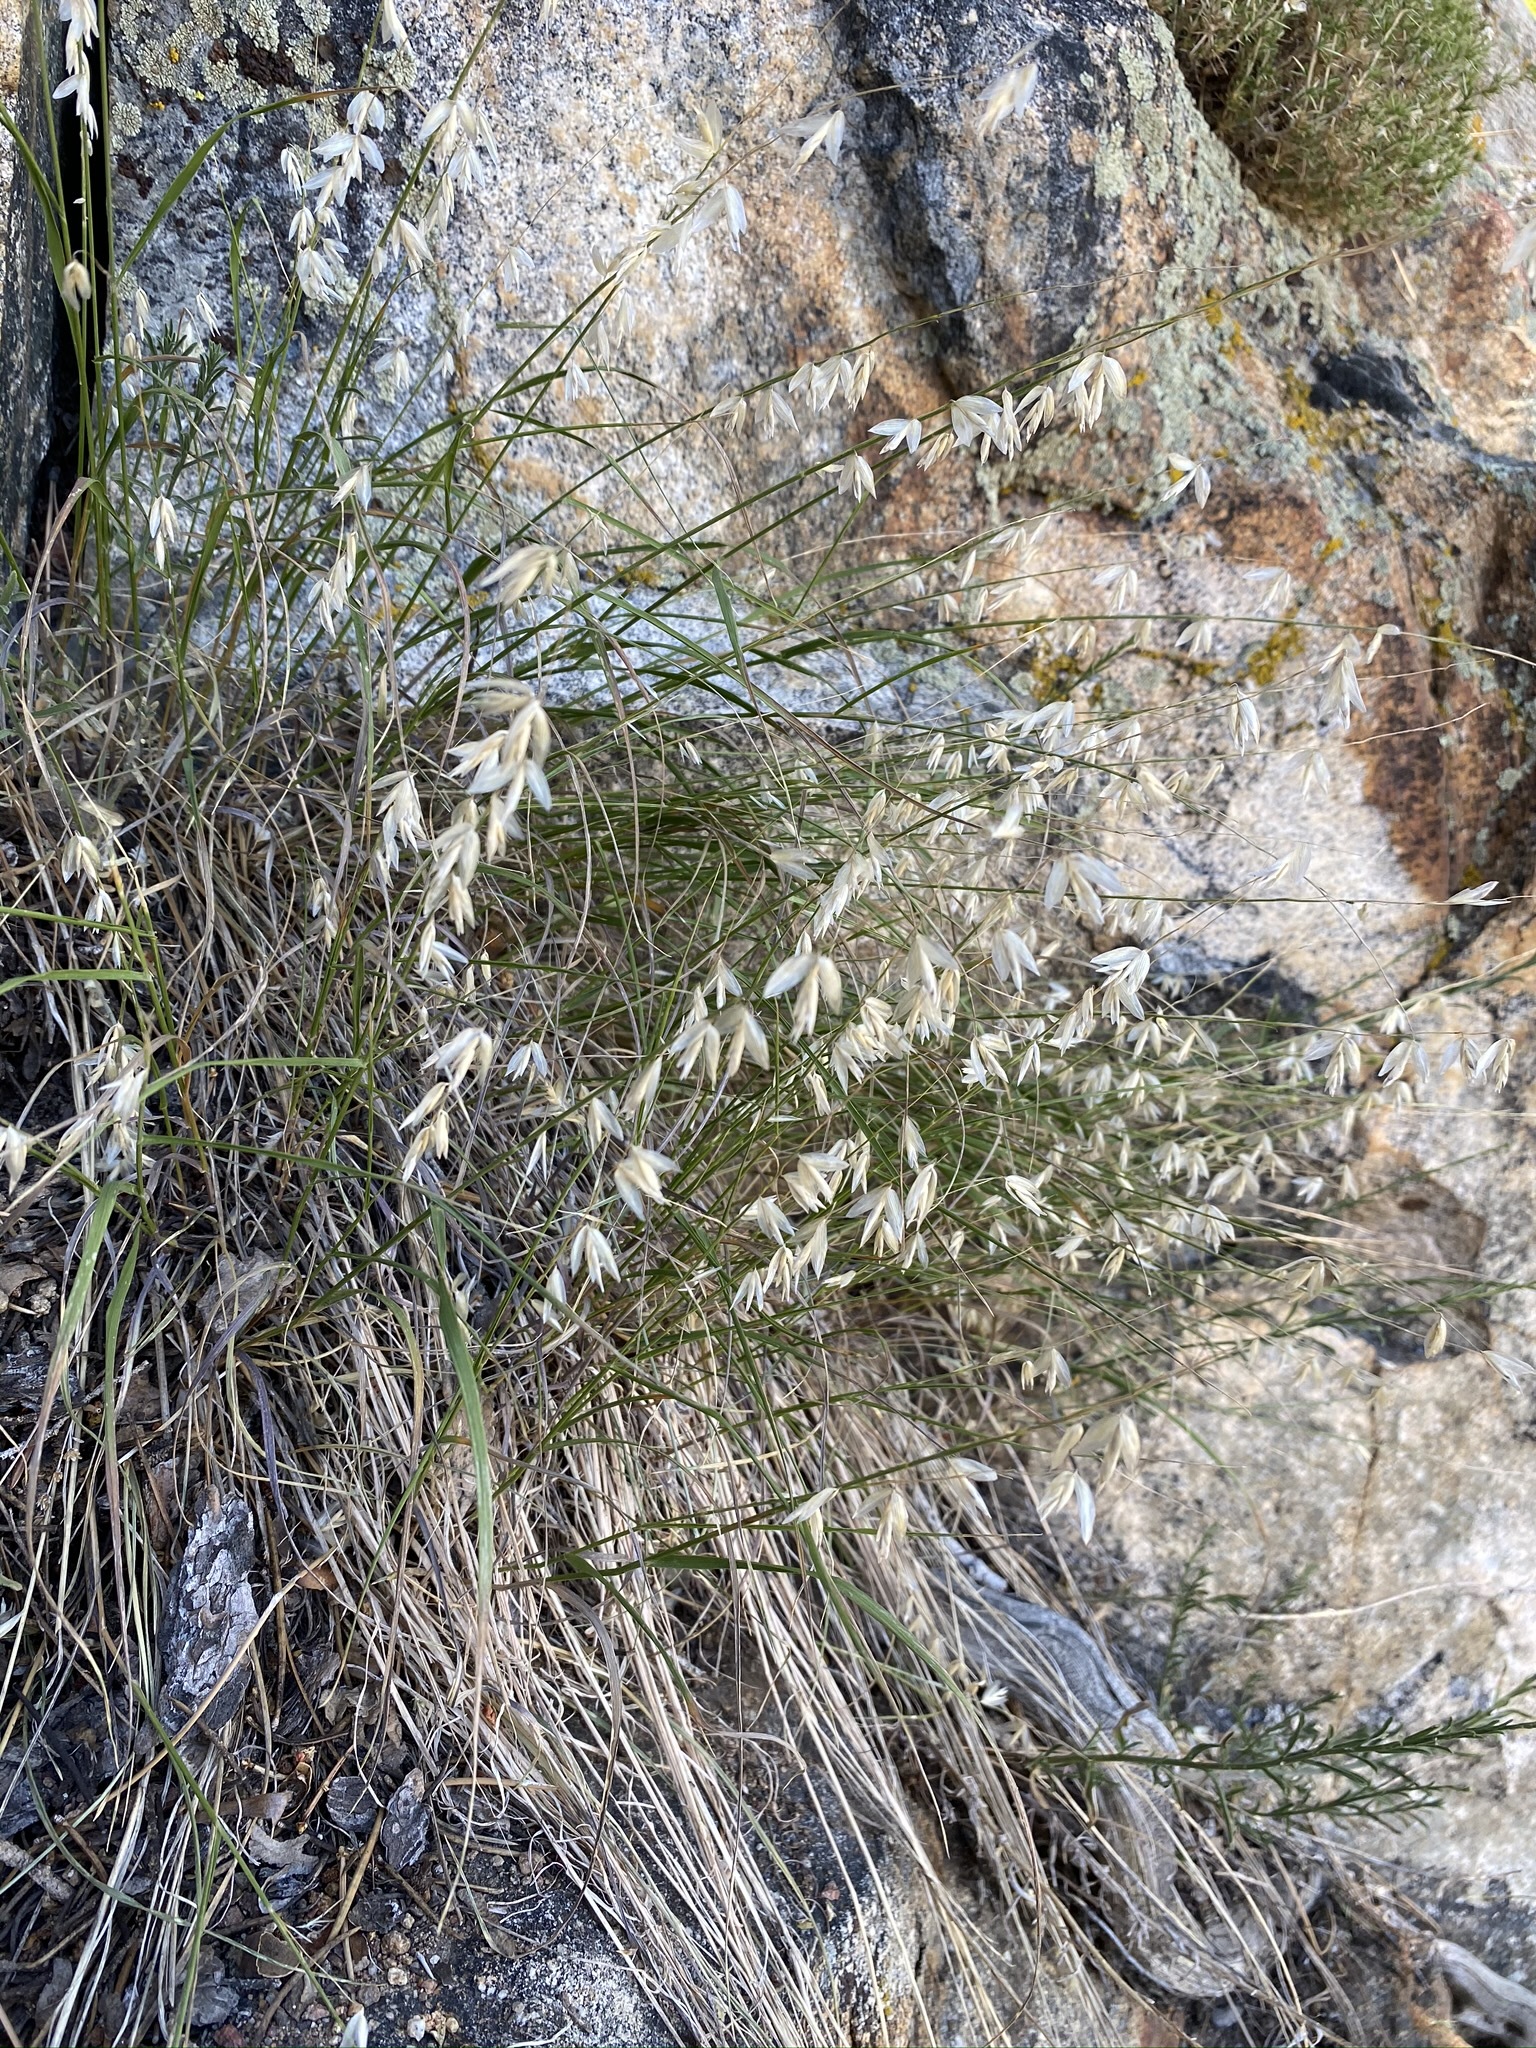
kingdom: Plantae
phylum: Tracheophyta
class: Liliopsida
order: Poales
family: Poaceae
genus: Melica
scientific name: Melica stricta
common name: Rock melic
